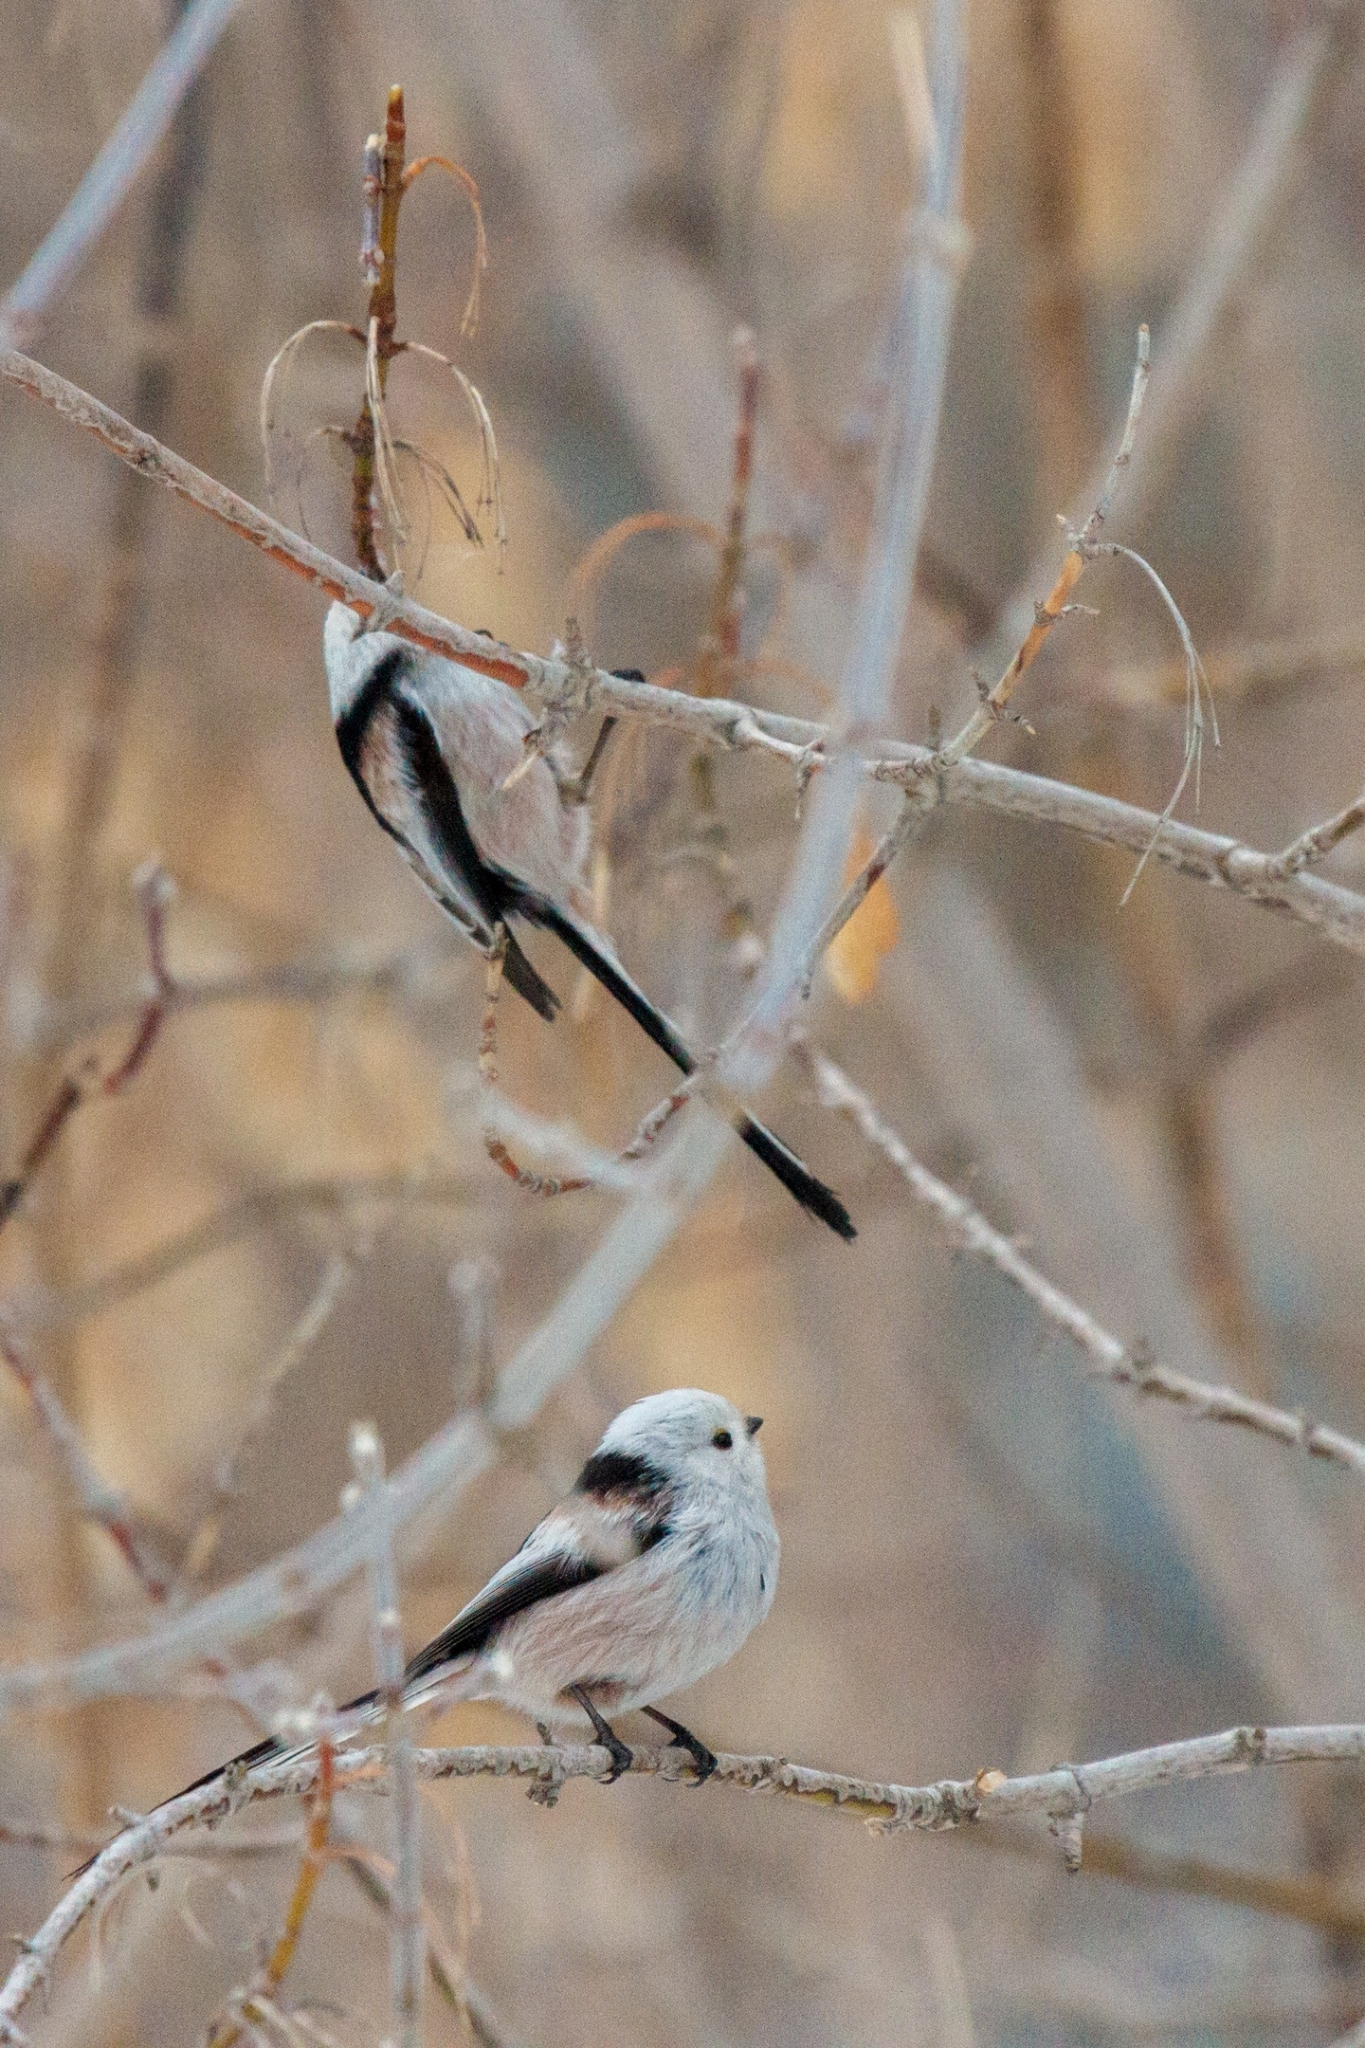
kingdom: Animalia
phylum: Chordata
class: Aves
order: Passeriformes
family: Aegithalidae
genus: Aegithalos
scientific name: Aegithalos caudatus
